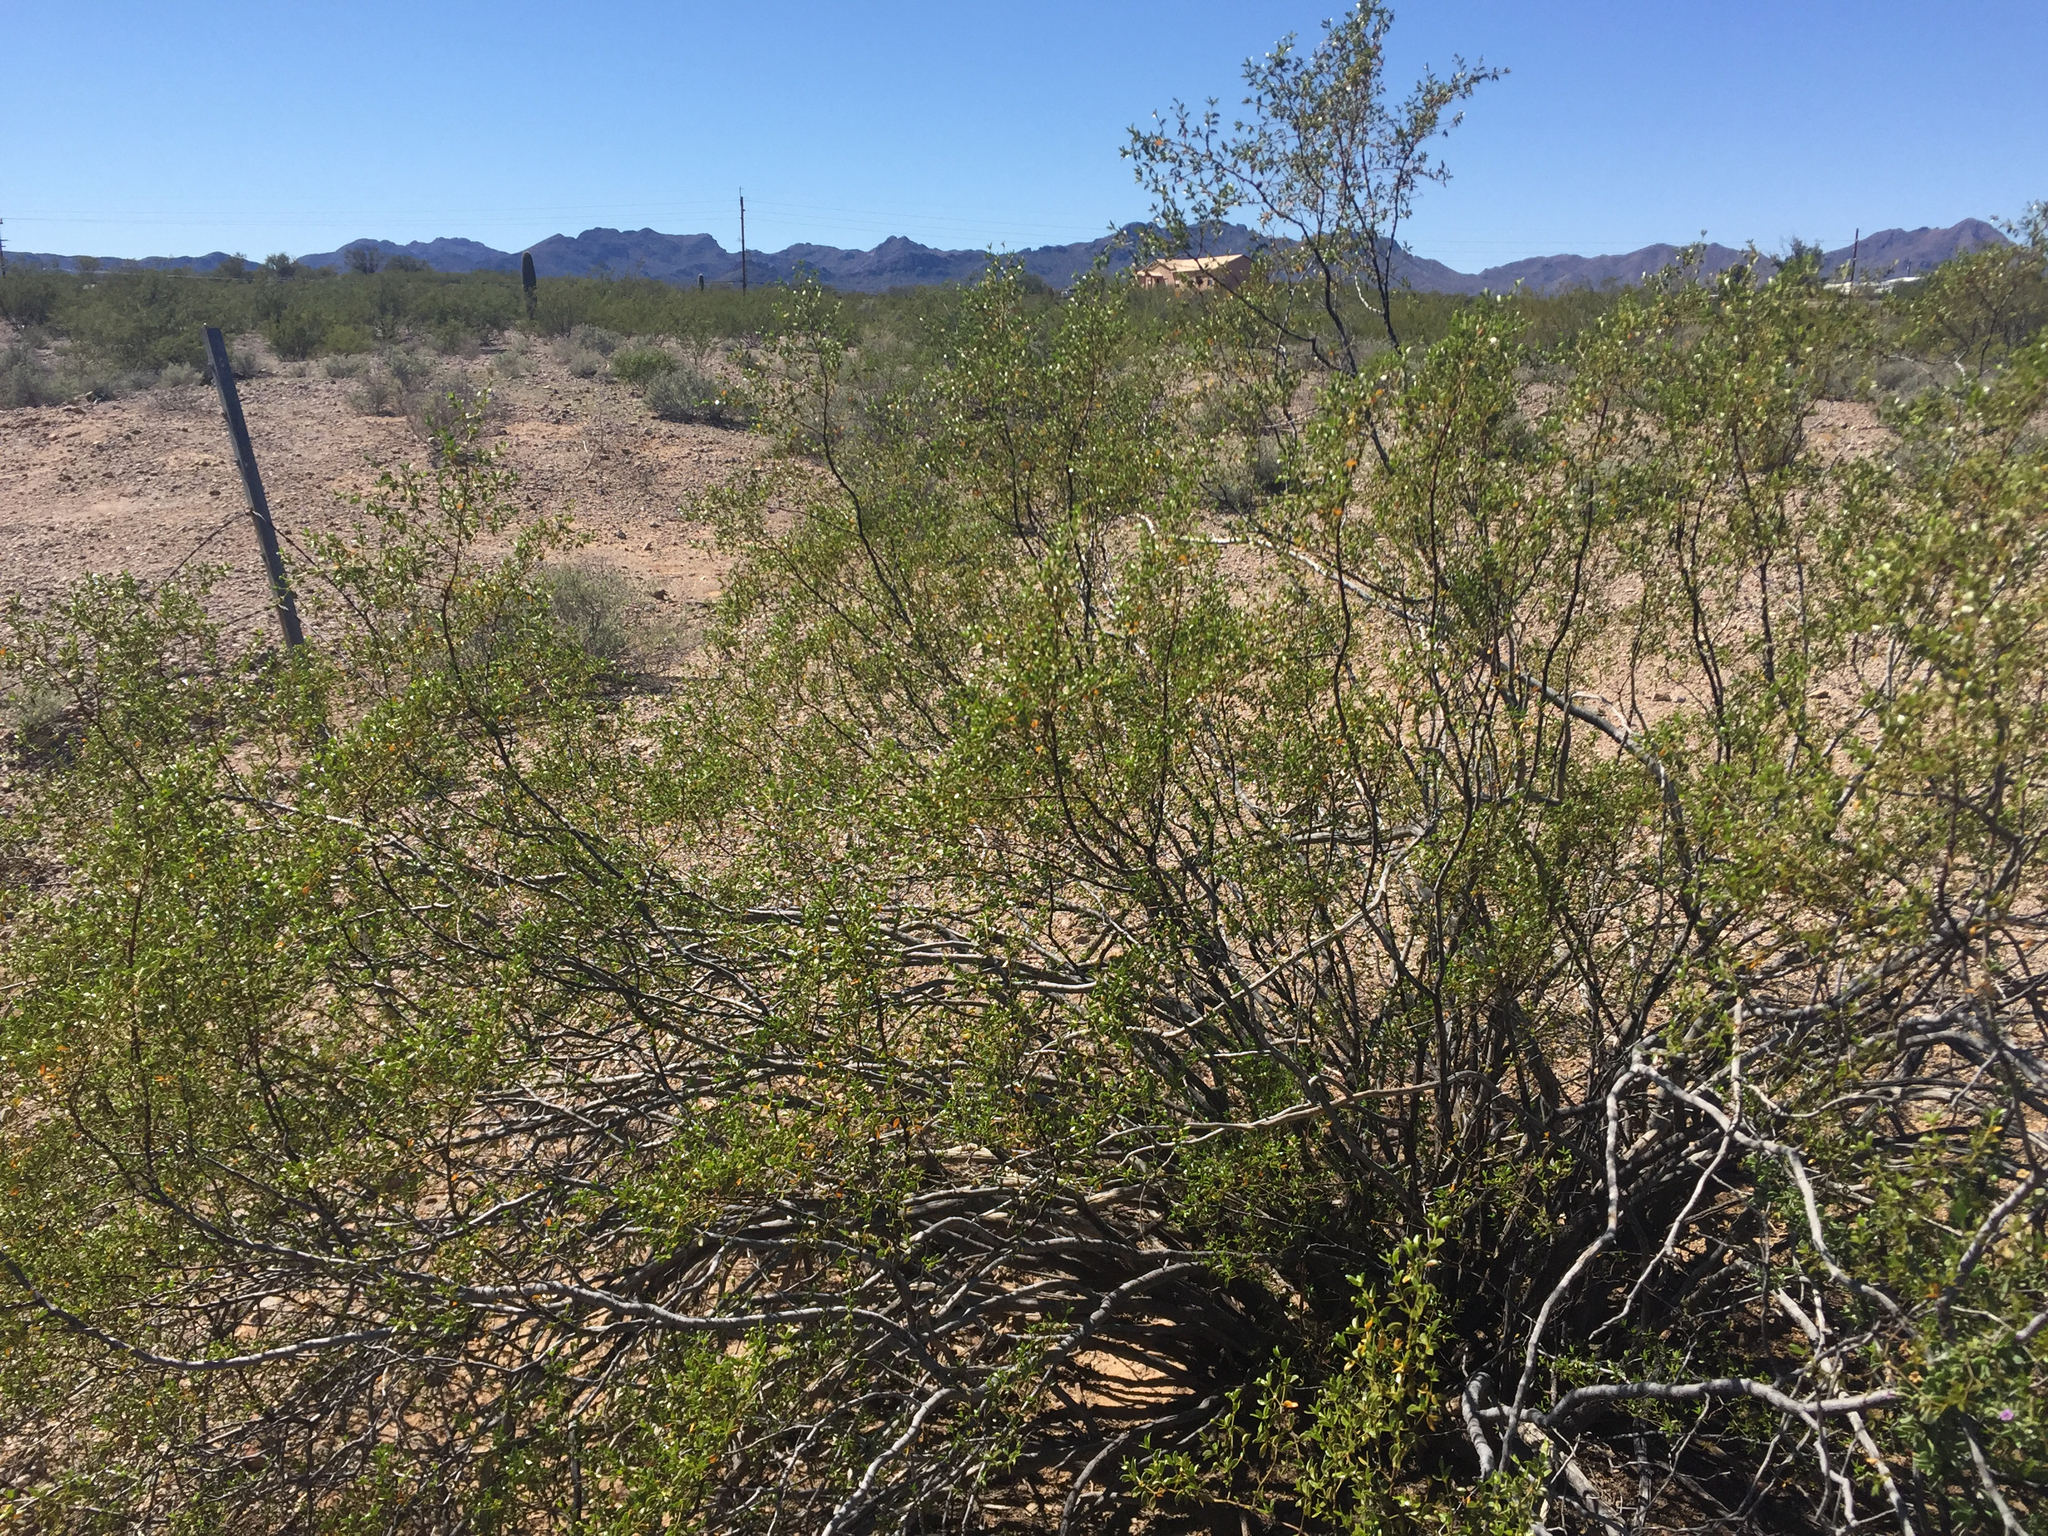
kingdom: Plantae
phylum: Tracheophyta
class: Magnoliopsida
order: Zygophyllales
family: Zygophyllaceae
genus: Larrea
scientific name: Larrea tridentata
